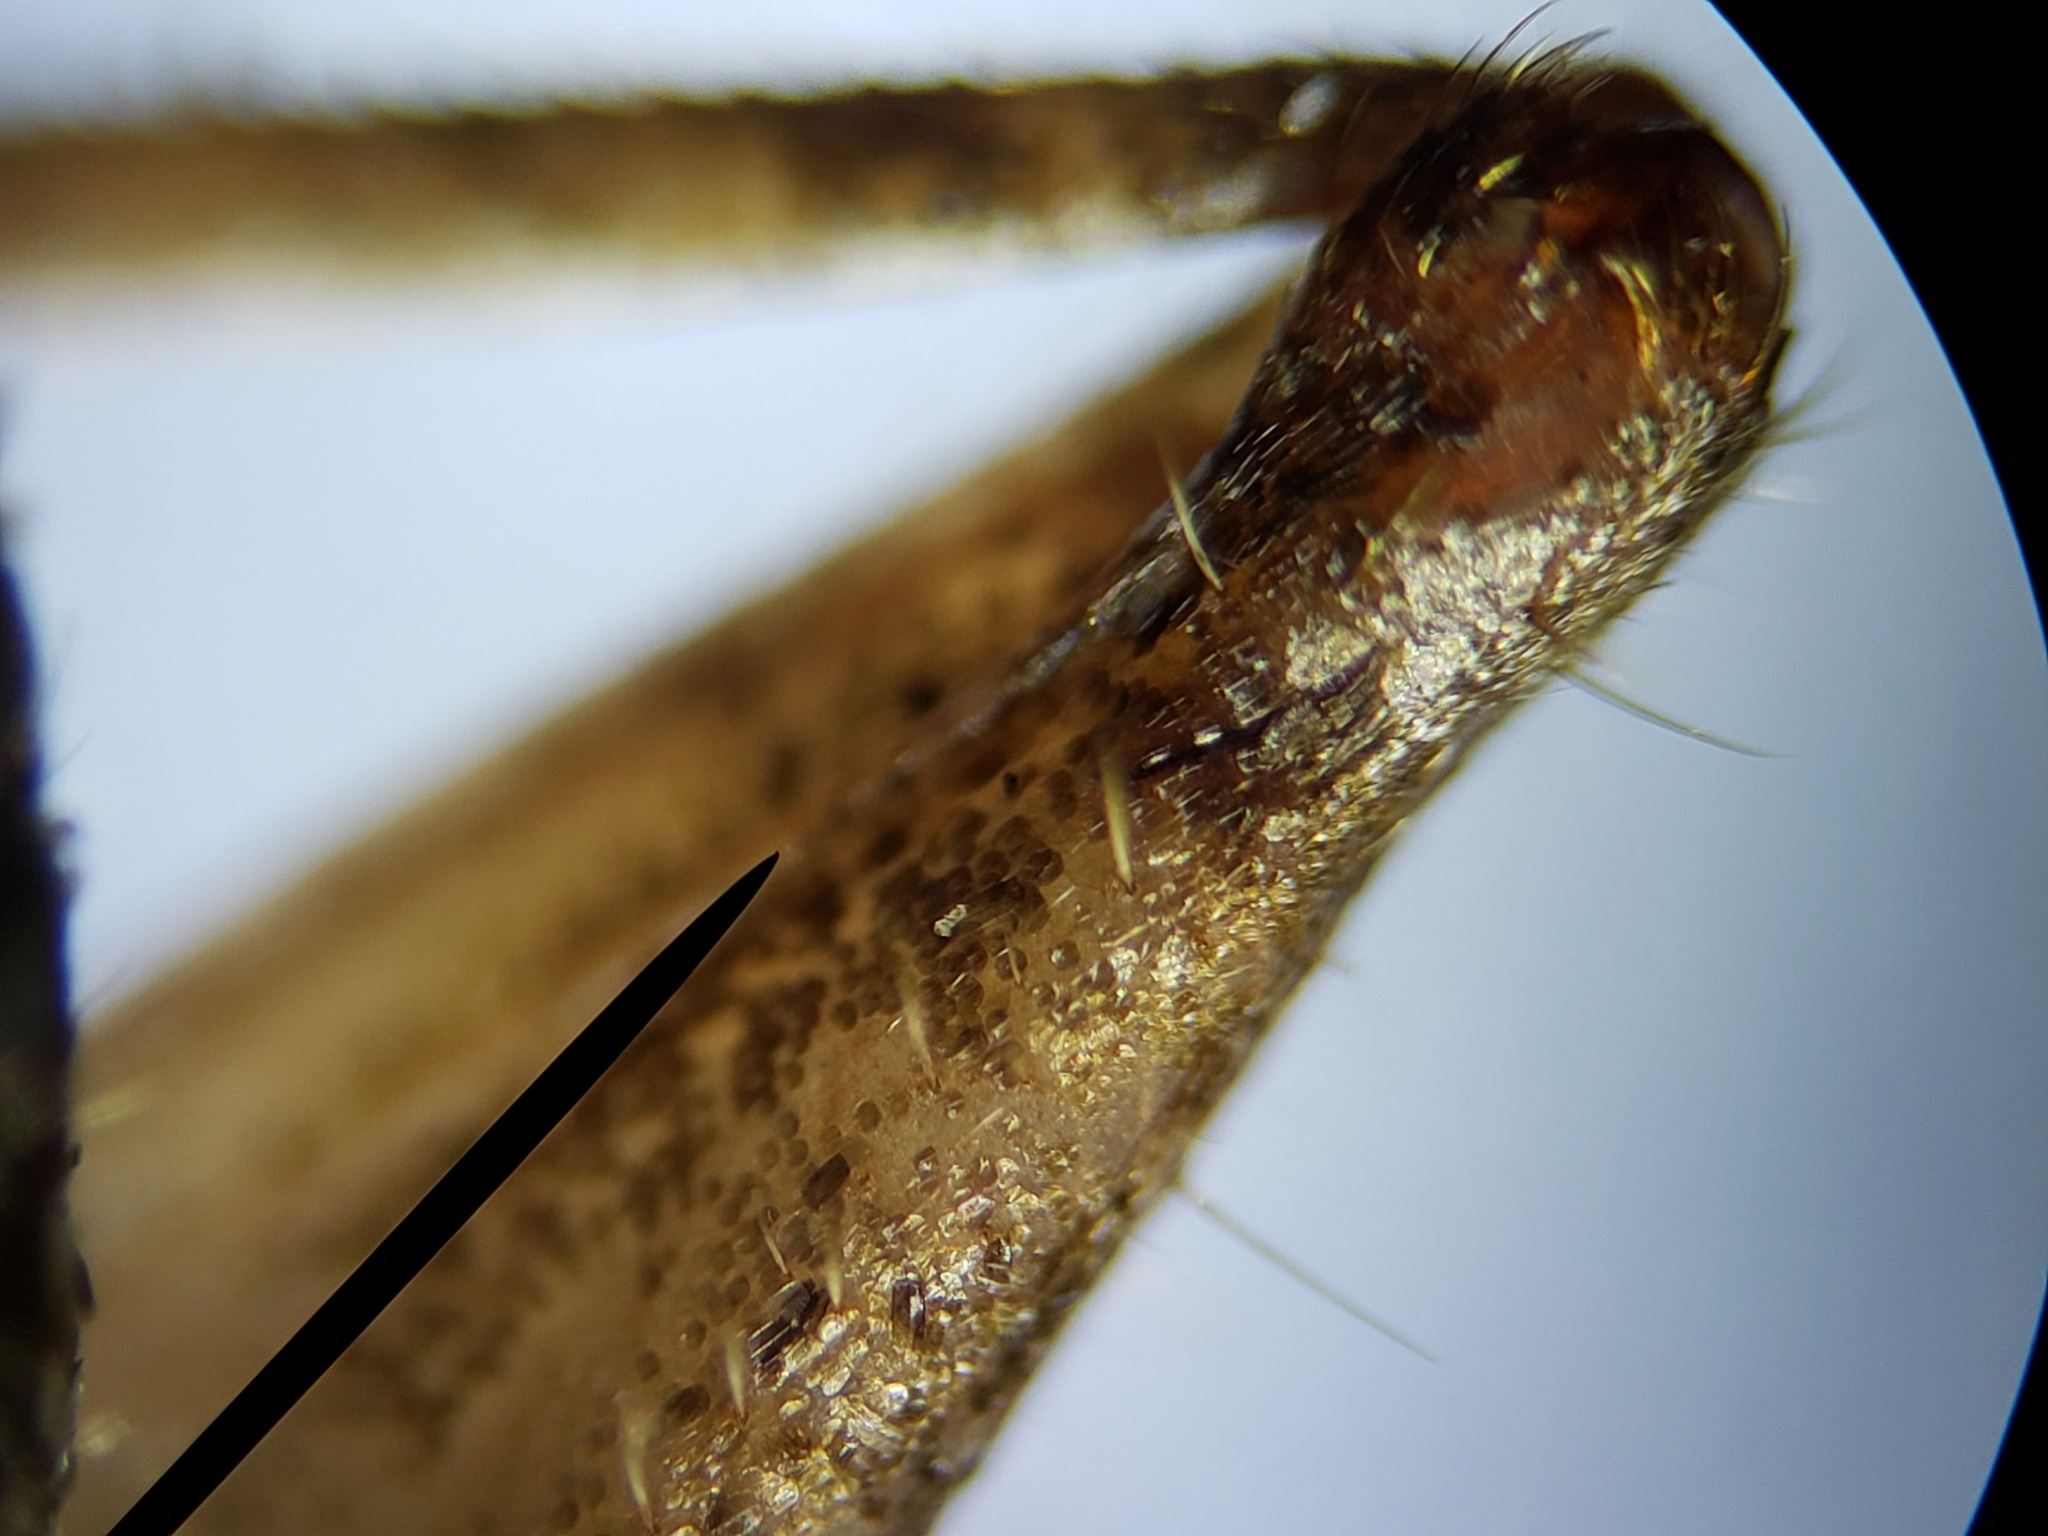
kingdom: Animalia
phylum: Arthropoda
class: Insecta
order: Orthoptera
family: Mogoplistidae
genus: Cycloptilum
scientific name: Cycloptilum kelainopum
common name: Black-faced scaly cricket
